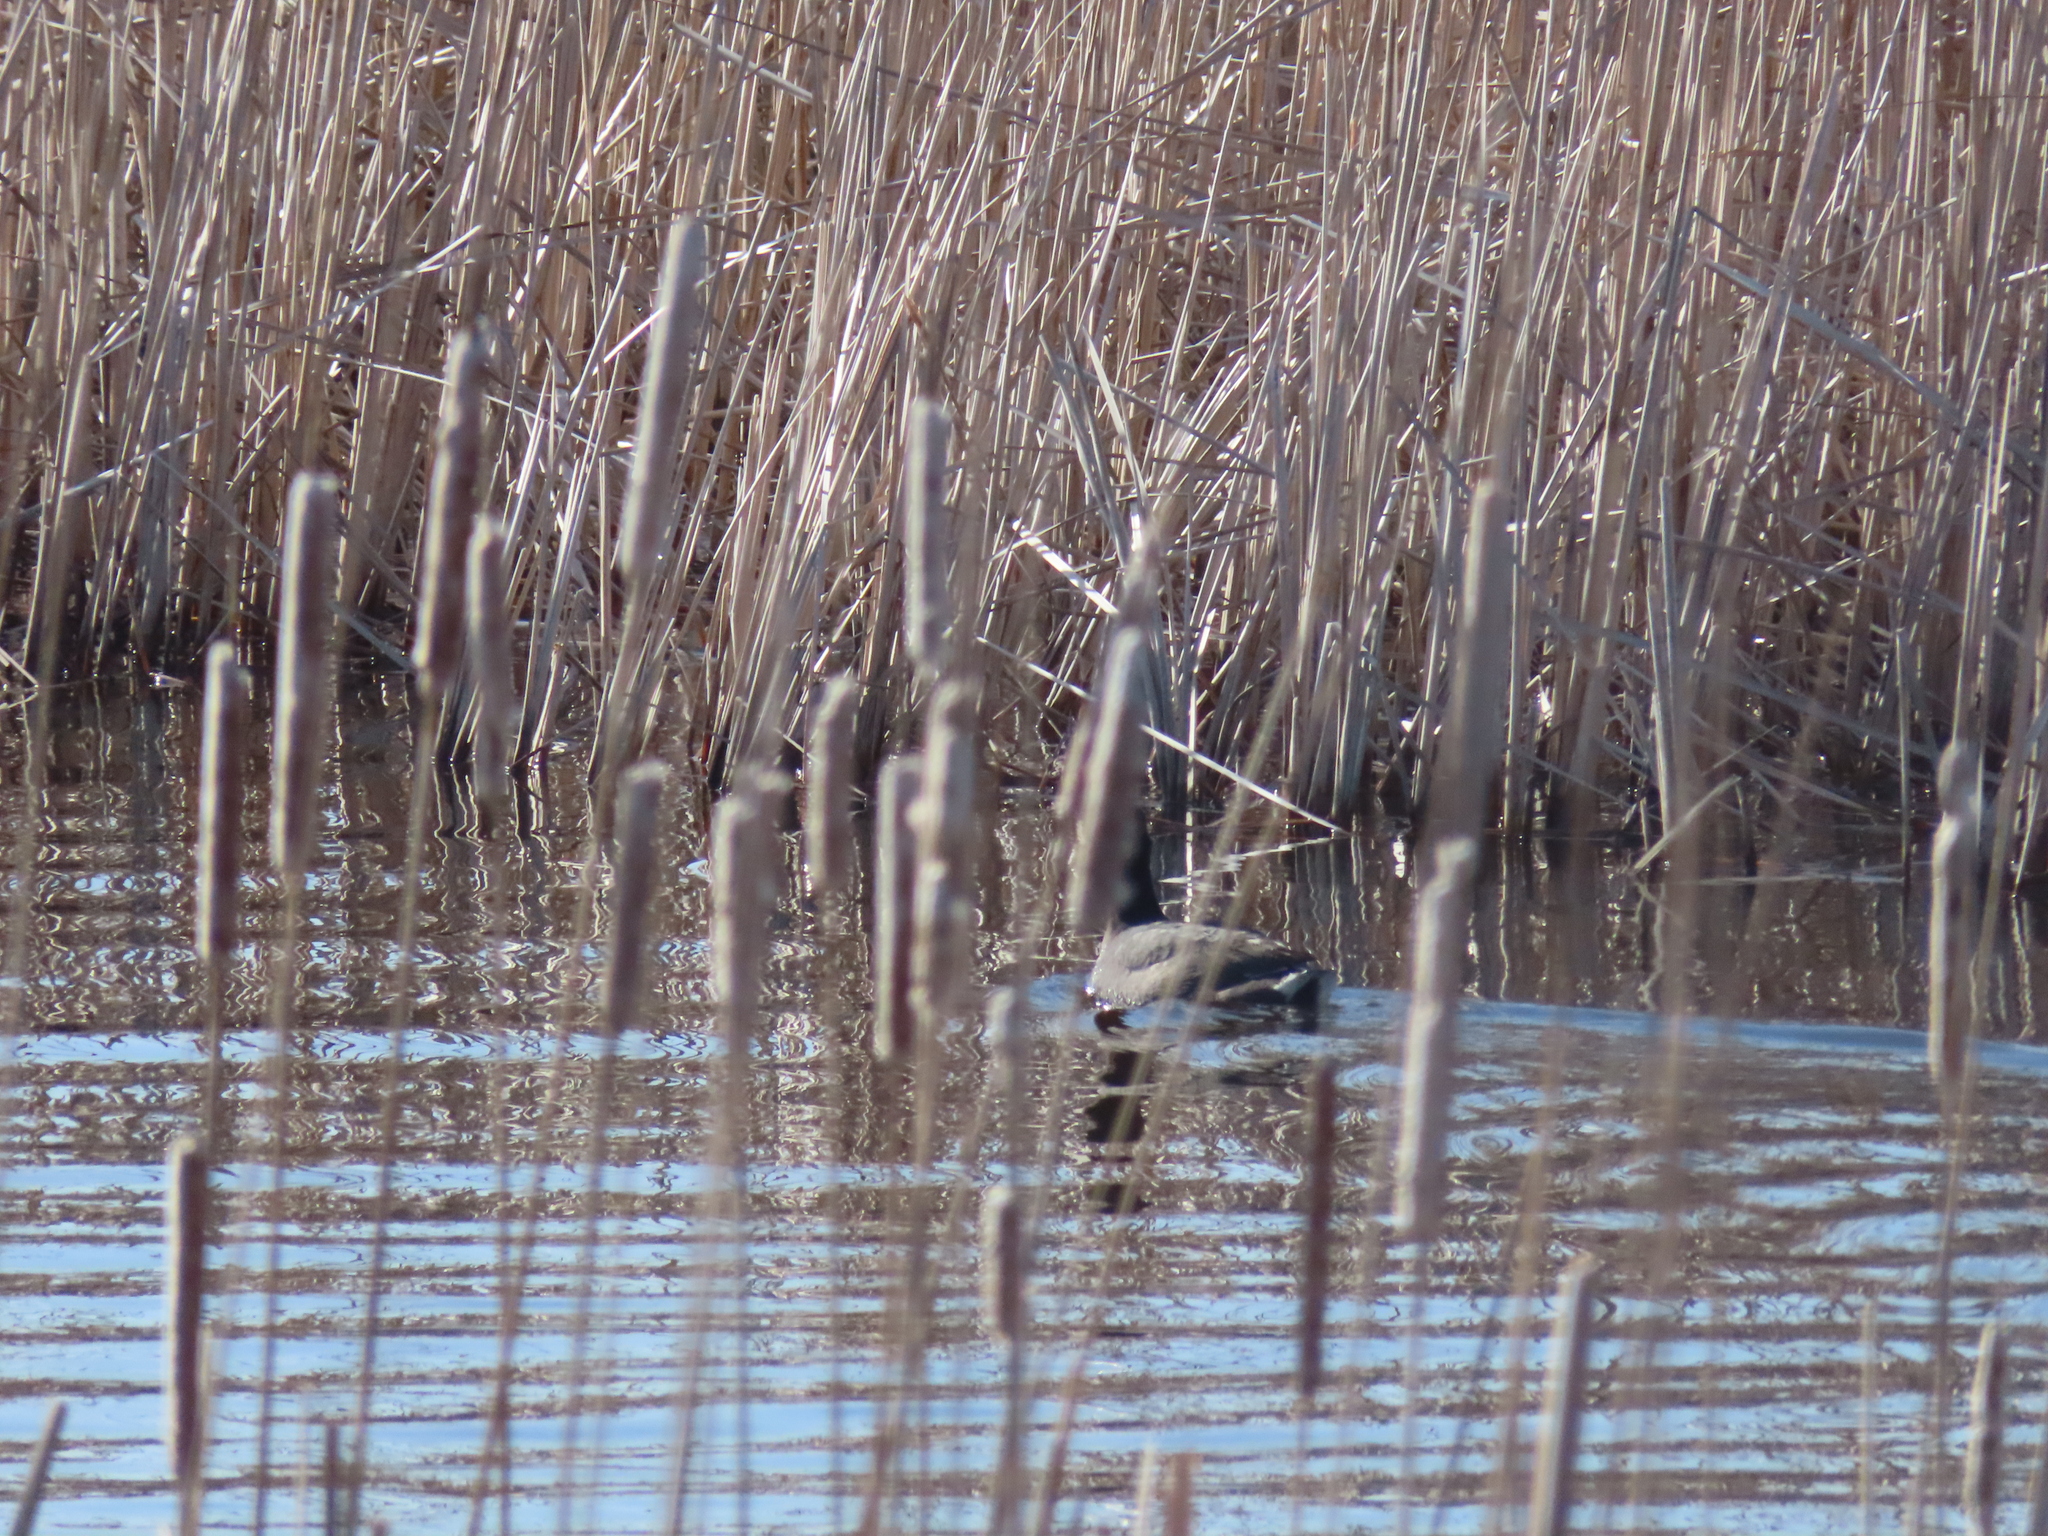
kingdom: Animalia
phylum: Chordata
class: Aves
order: Gruiformes
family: Rallidae
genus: Fulica
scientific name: Fulica americana
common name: American coot
